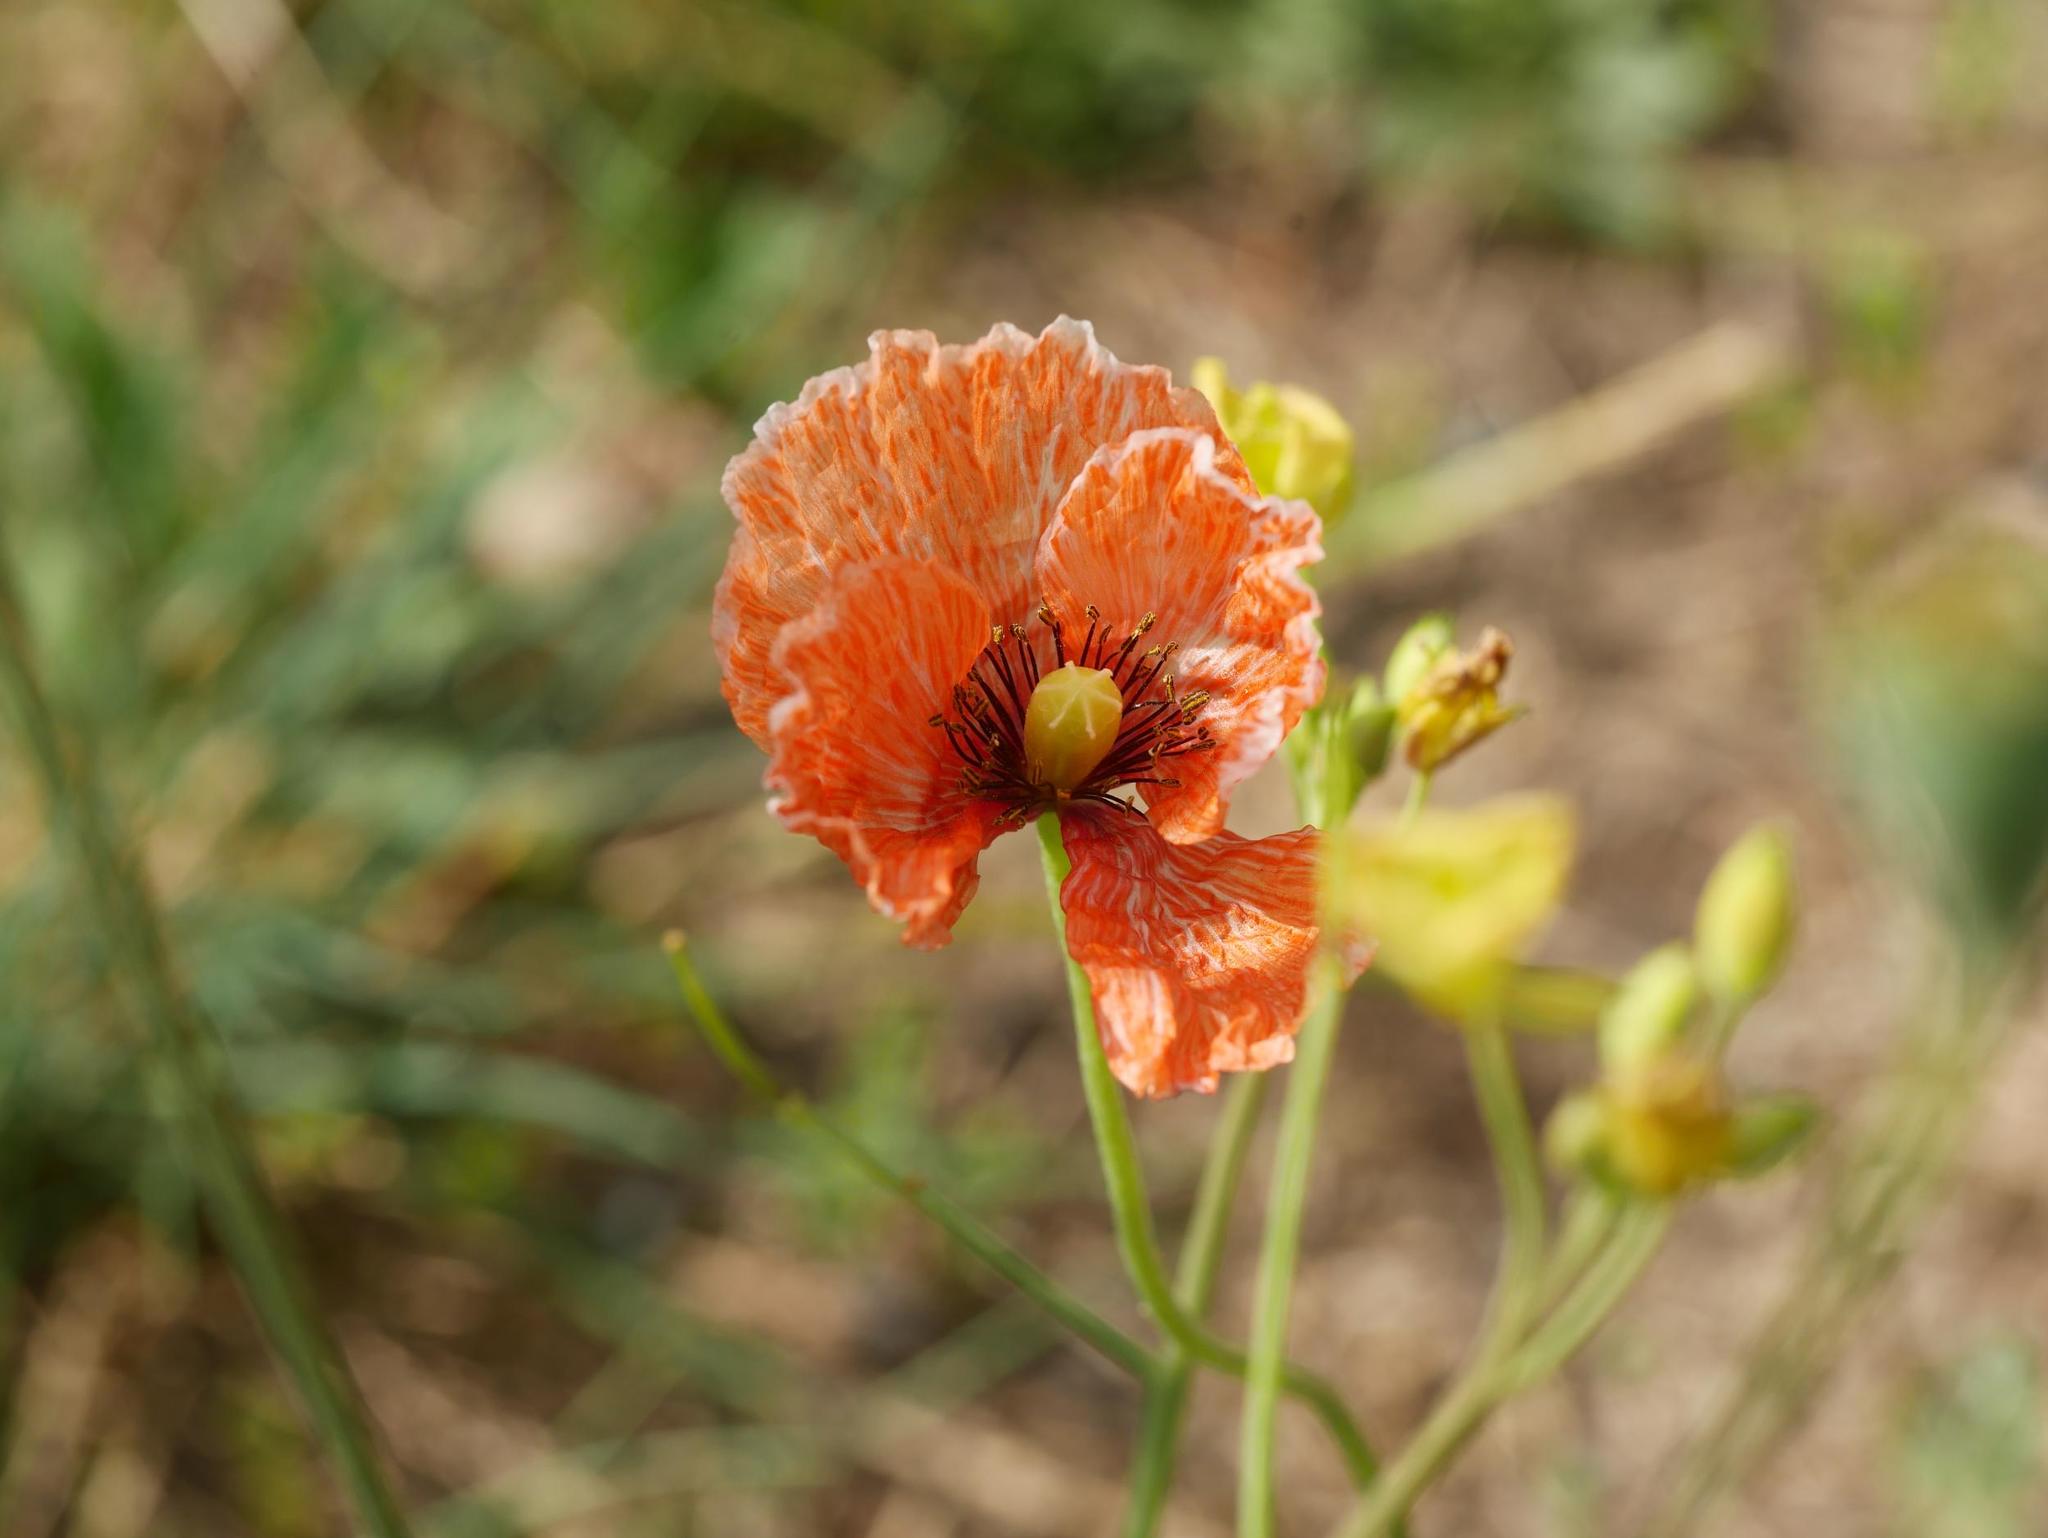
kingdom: Plantae
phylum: Tracheophyta
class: Magnoliopsida
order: Ranunculales
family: Papaveraceae
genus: Papaver
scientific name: Papaver dubium
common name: Long-headed poppy
